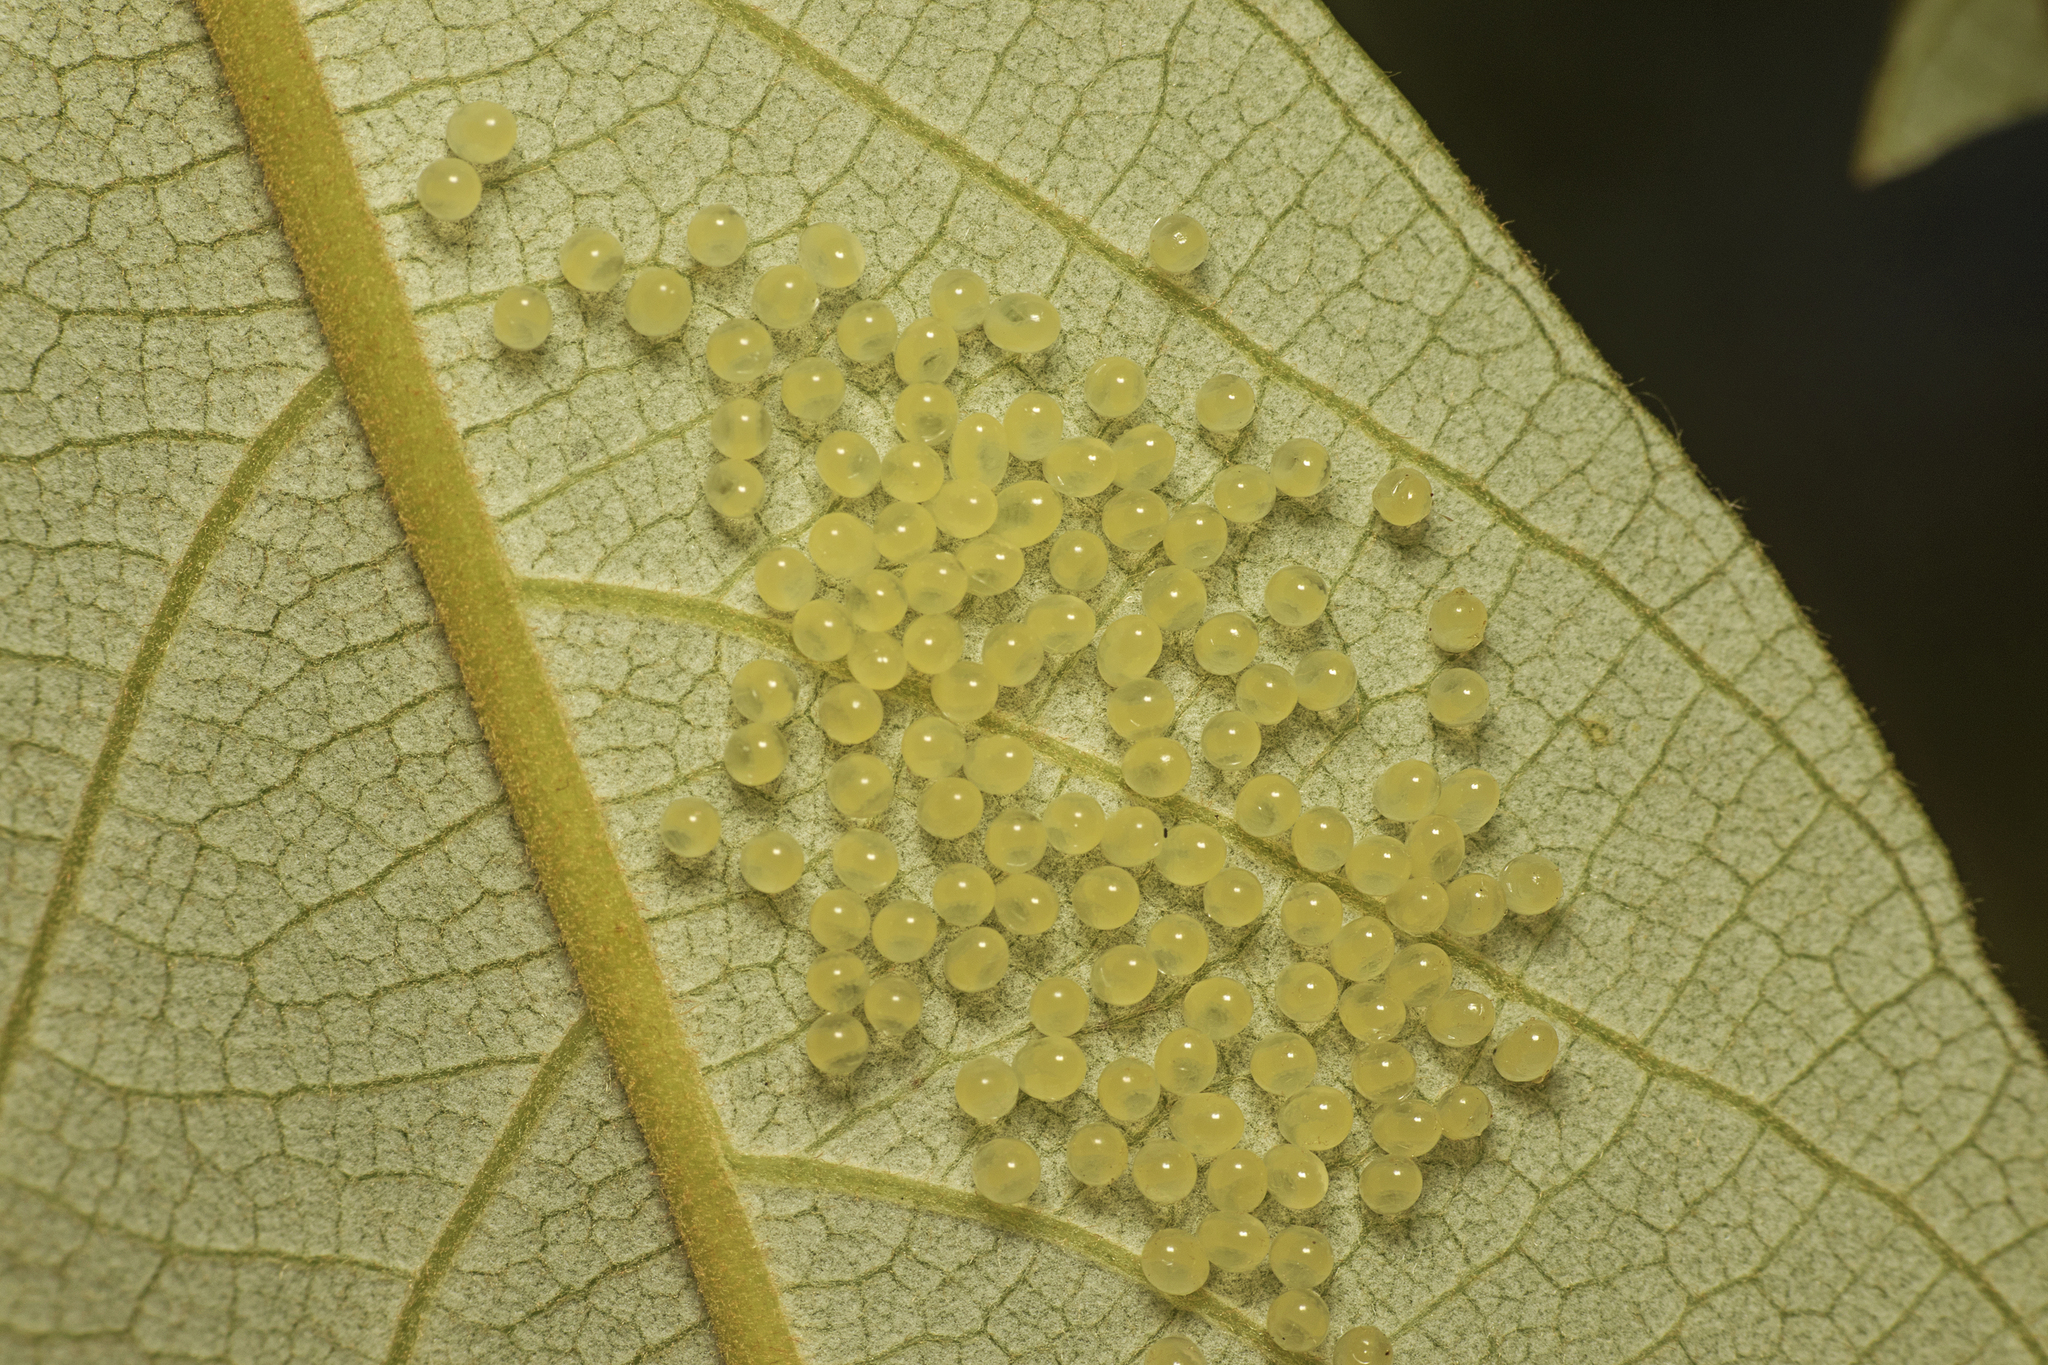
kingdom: Animalia
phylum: Arthropoda
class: Insecta
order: Hymenoptera
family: Pergidae
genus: Philomastix
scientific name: Philomastix
